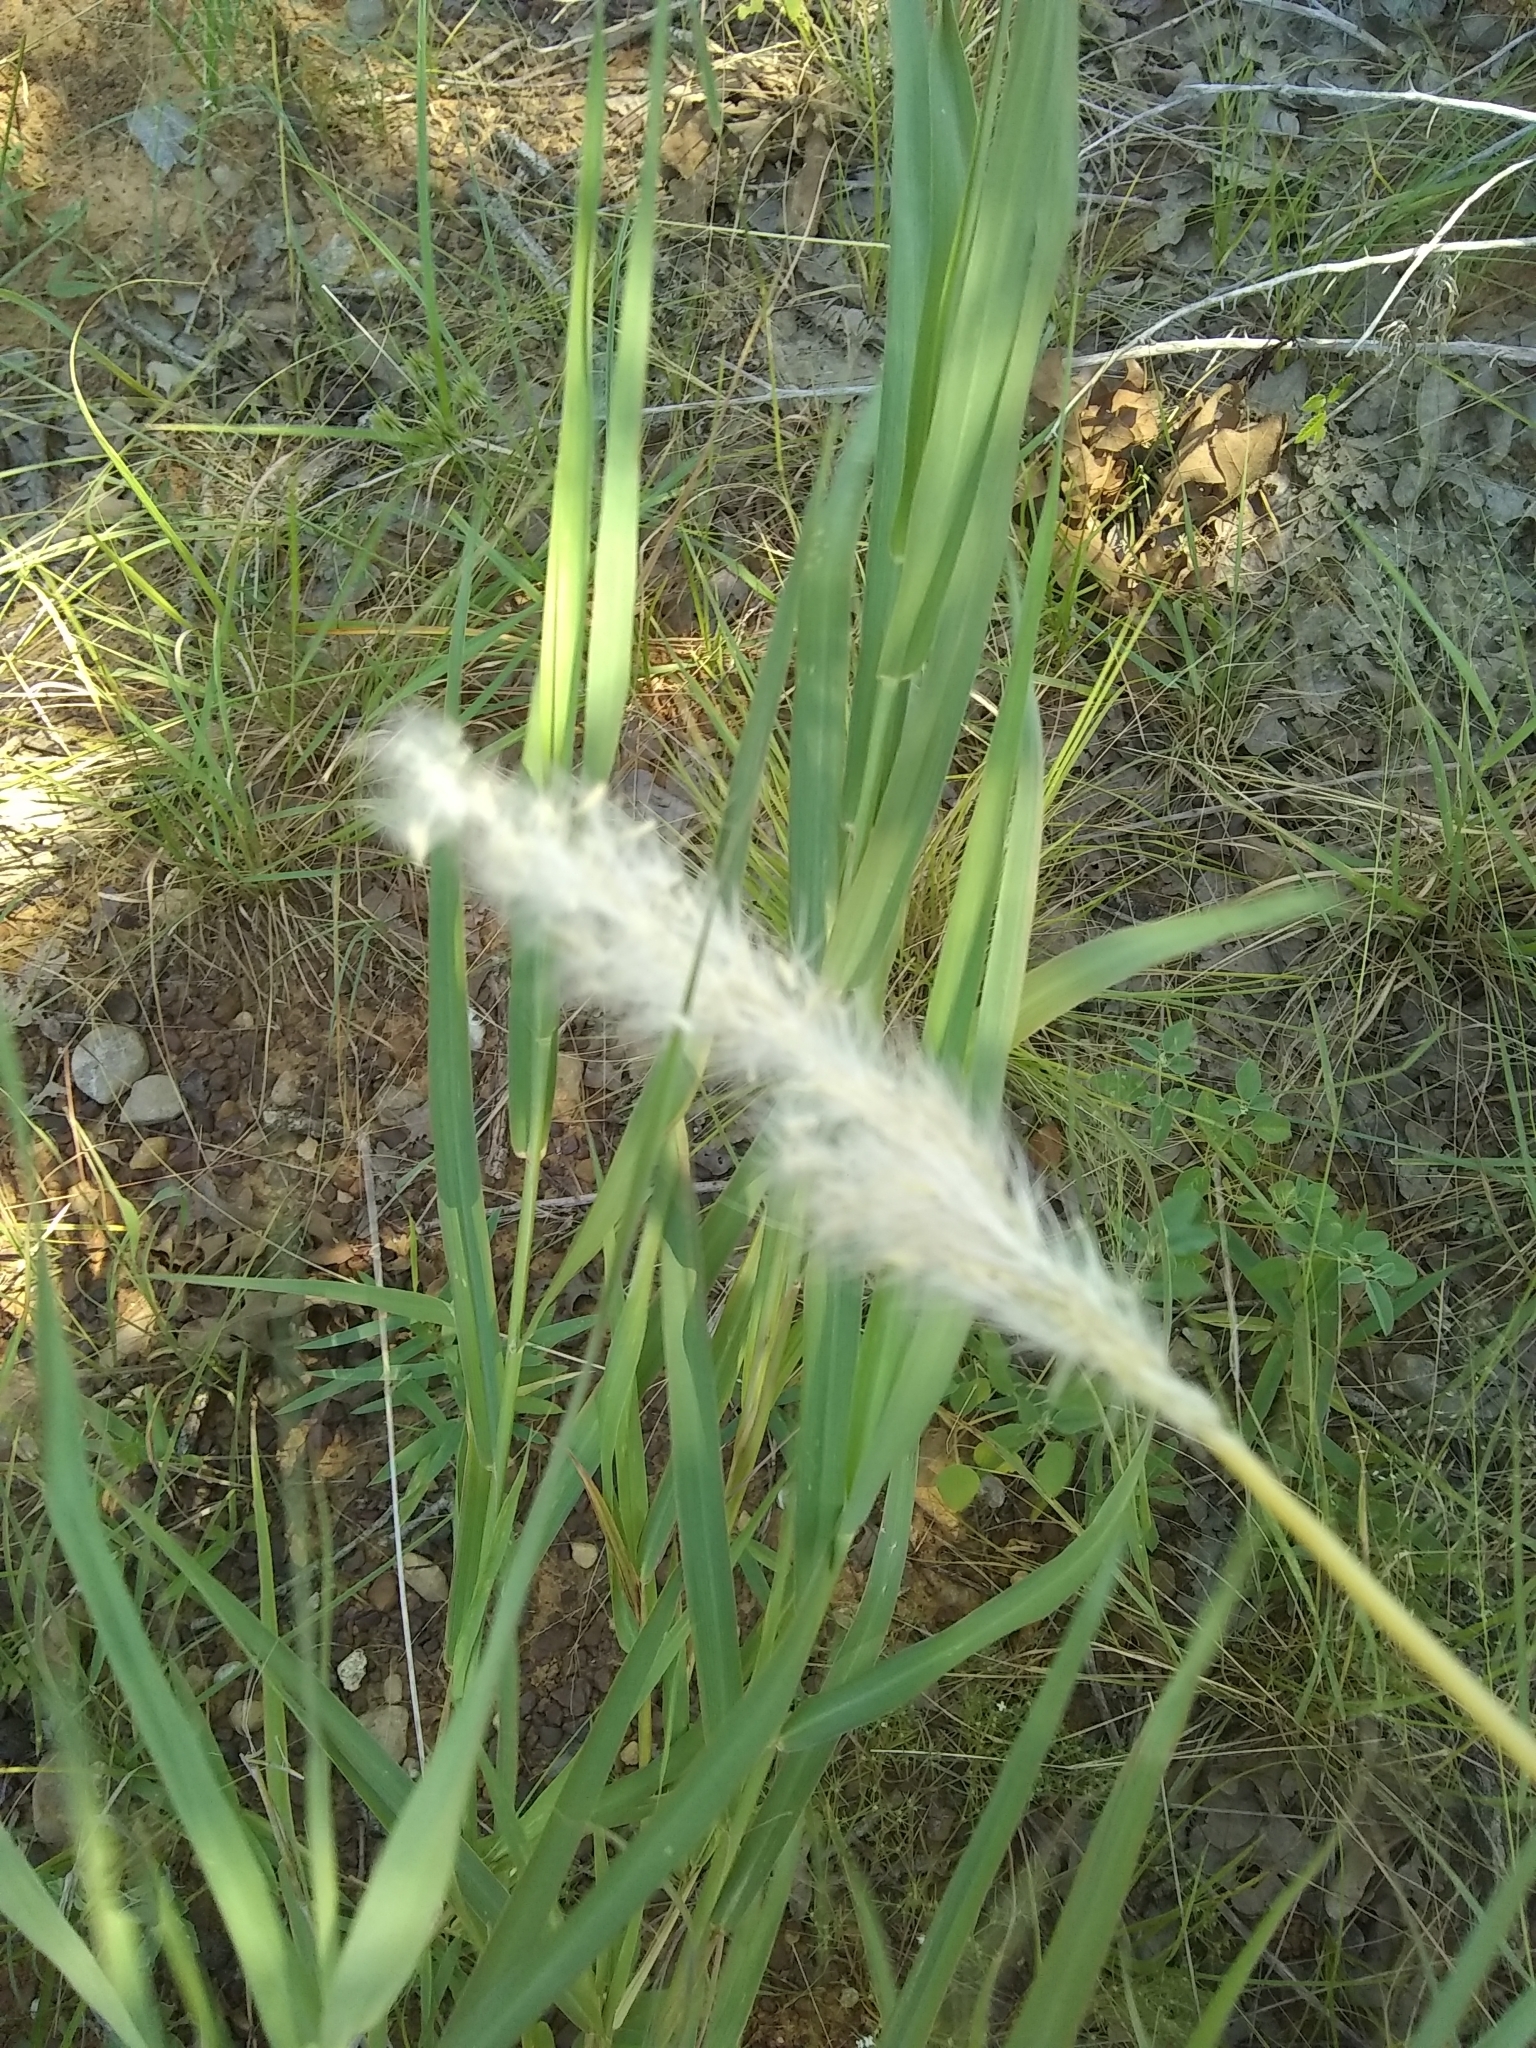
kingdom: Plantae
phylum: Tracheophyta
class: Liliopsida
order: Poales
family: Poaceae
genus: Bothriochloa
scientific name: Bothriochloa torreyana
